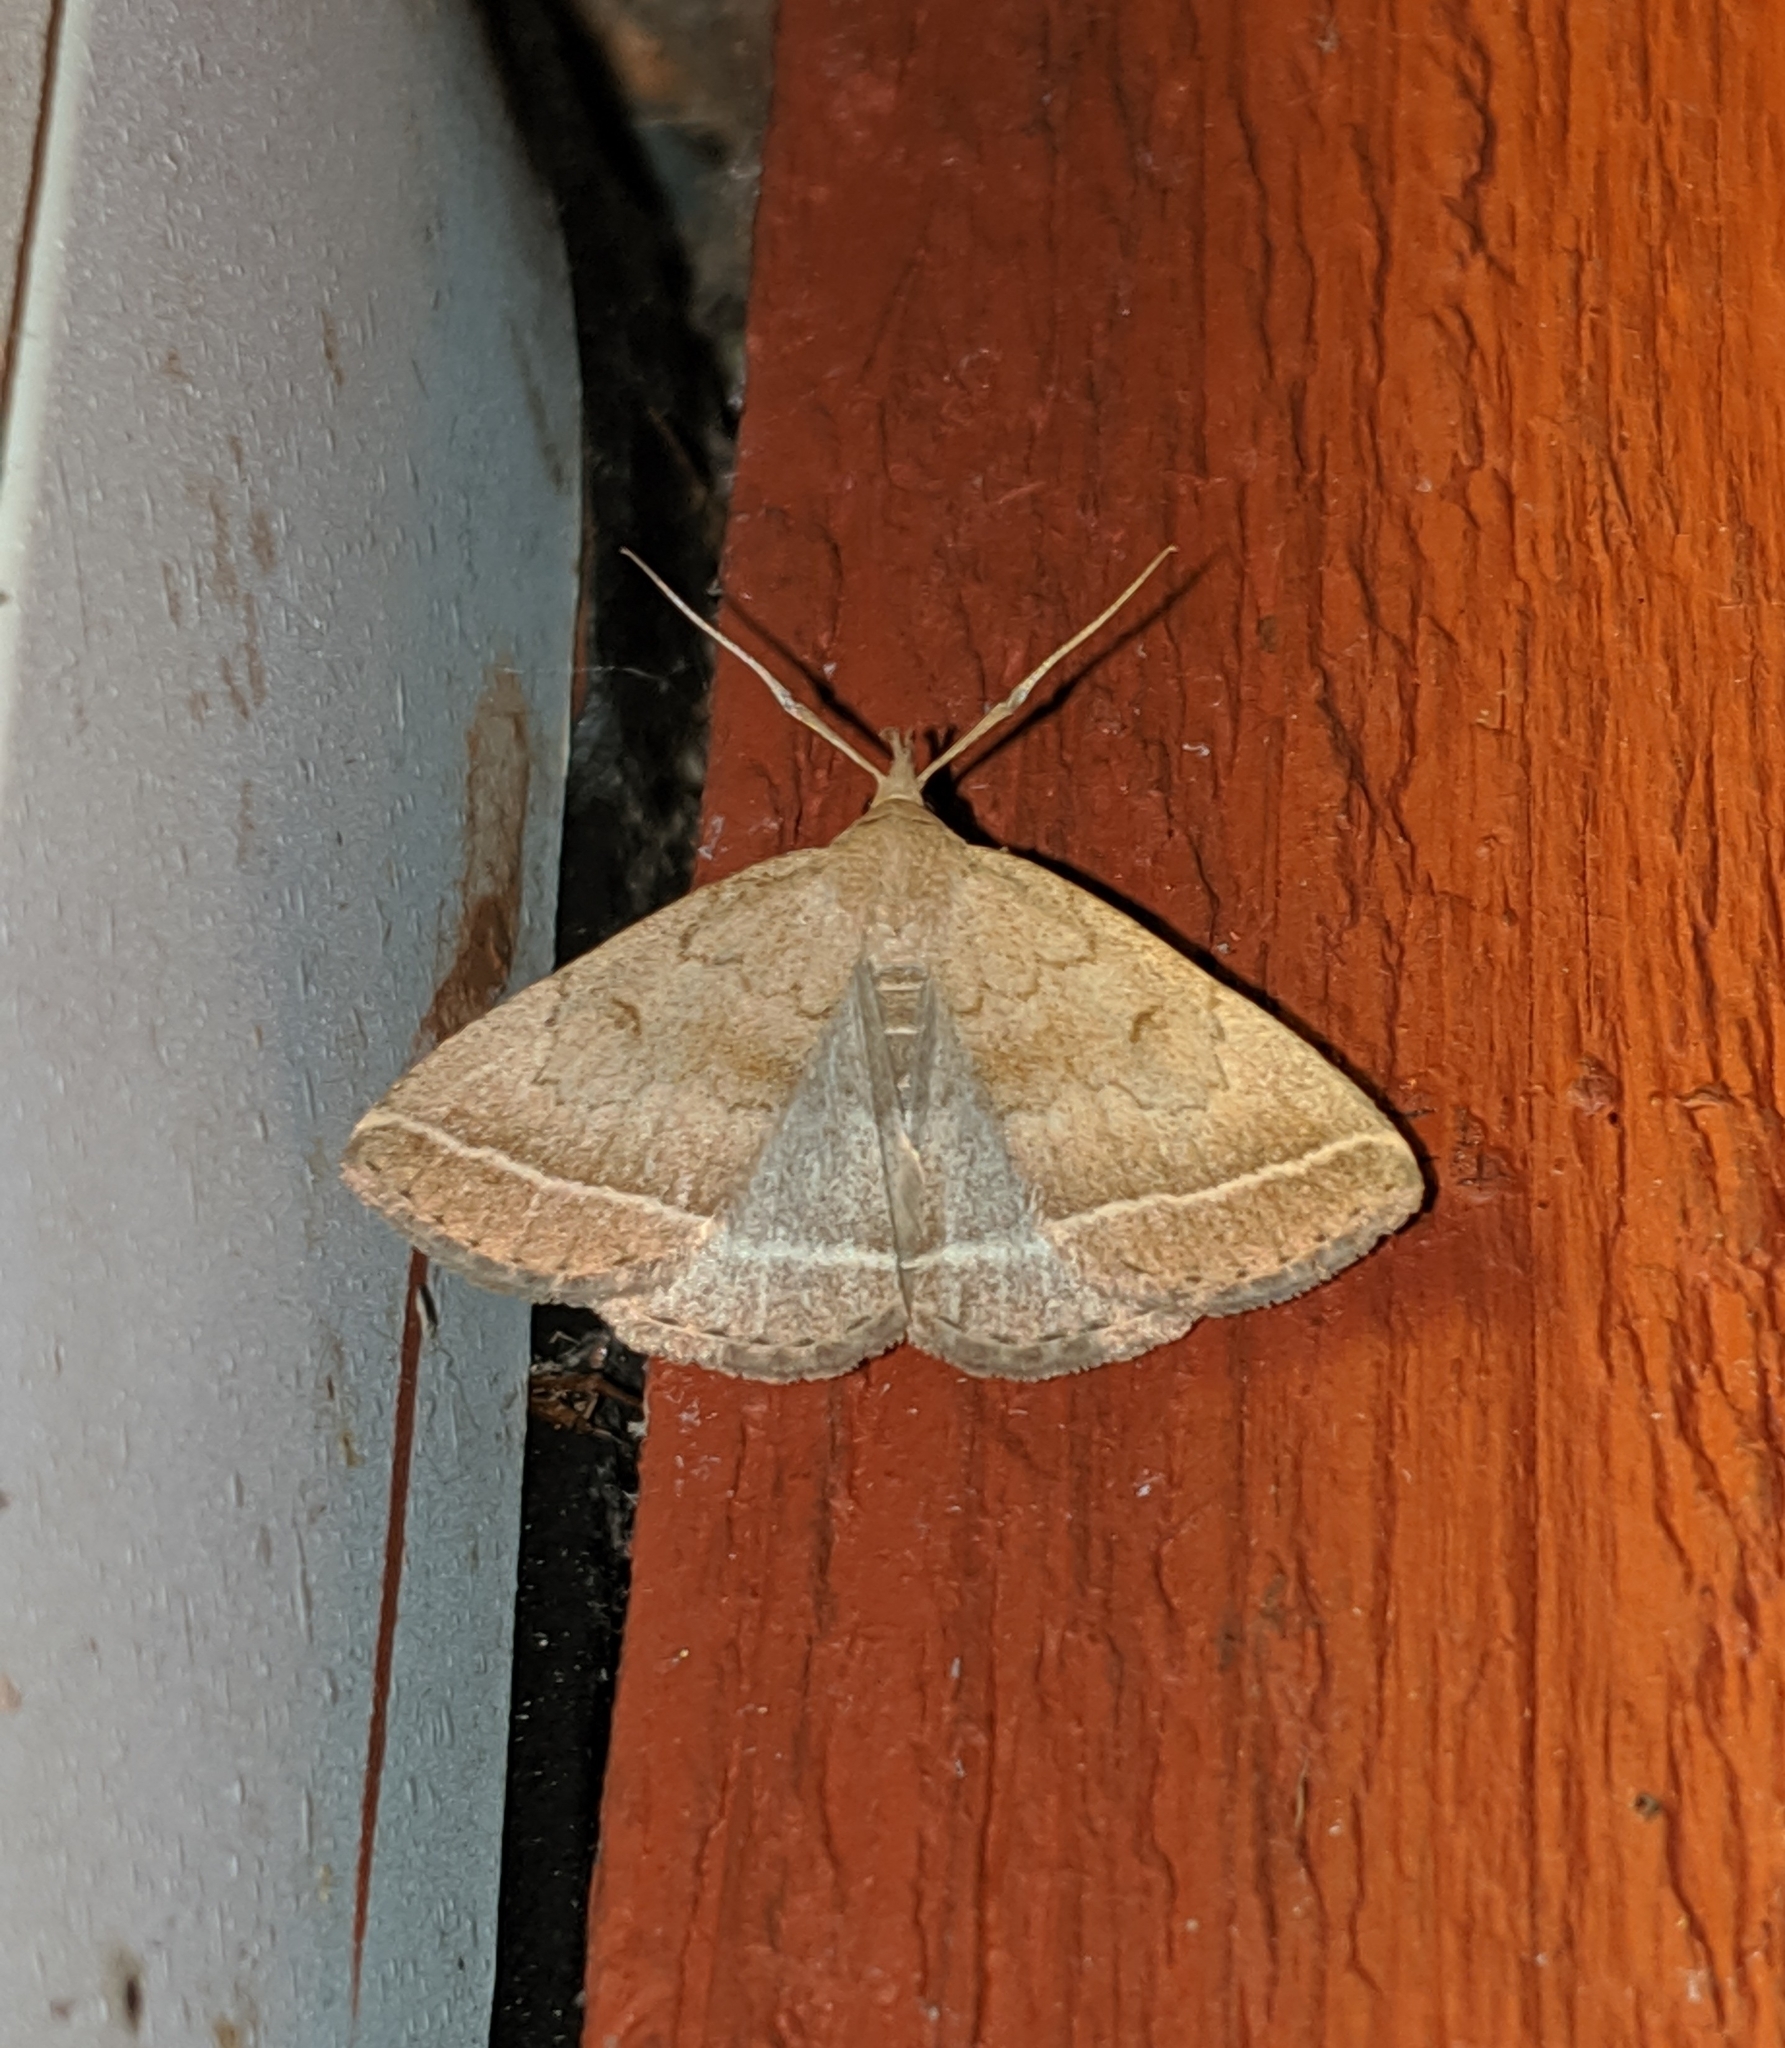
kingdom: Animalia
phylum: Arthropoda
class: Insecta
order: Lepidoptera
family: Erebidae
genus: Zanclognatha
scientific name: Zanclognatha jacchusalis
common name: Yellowish zanclognatha
